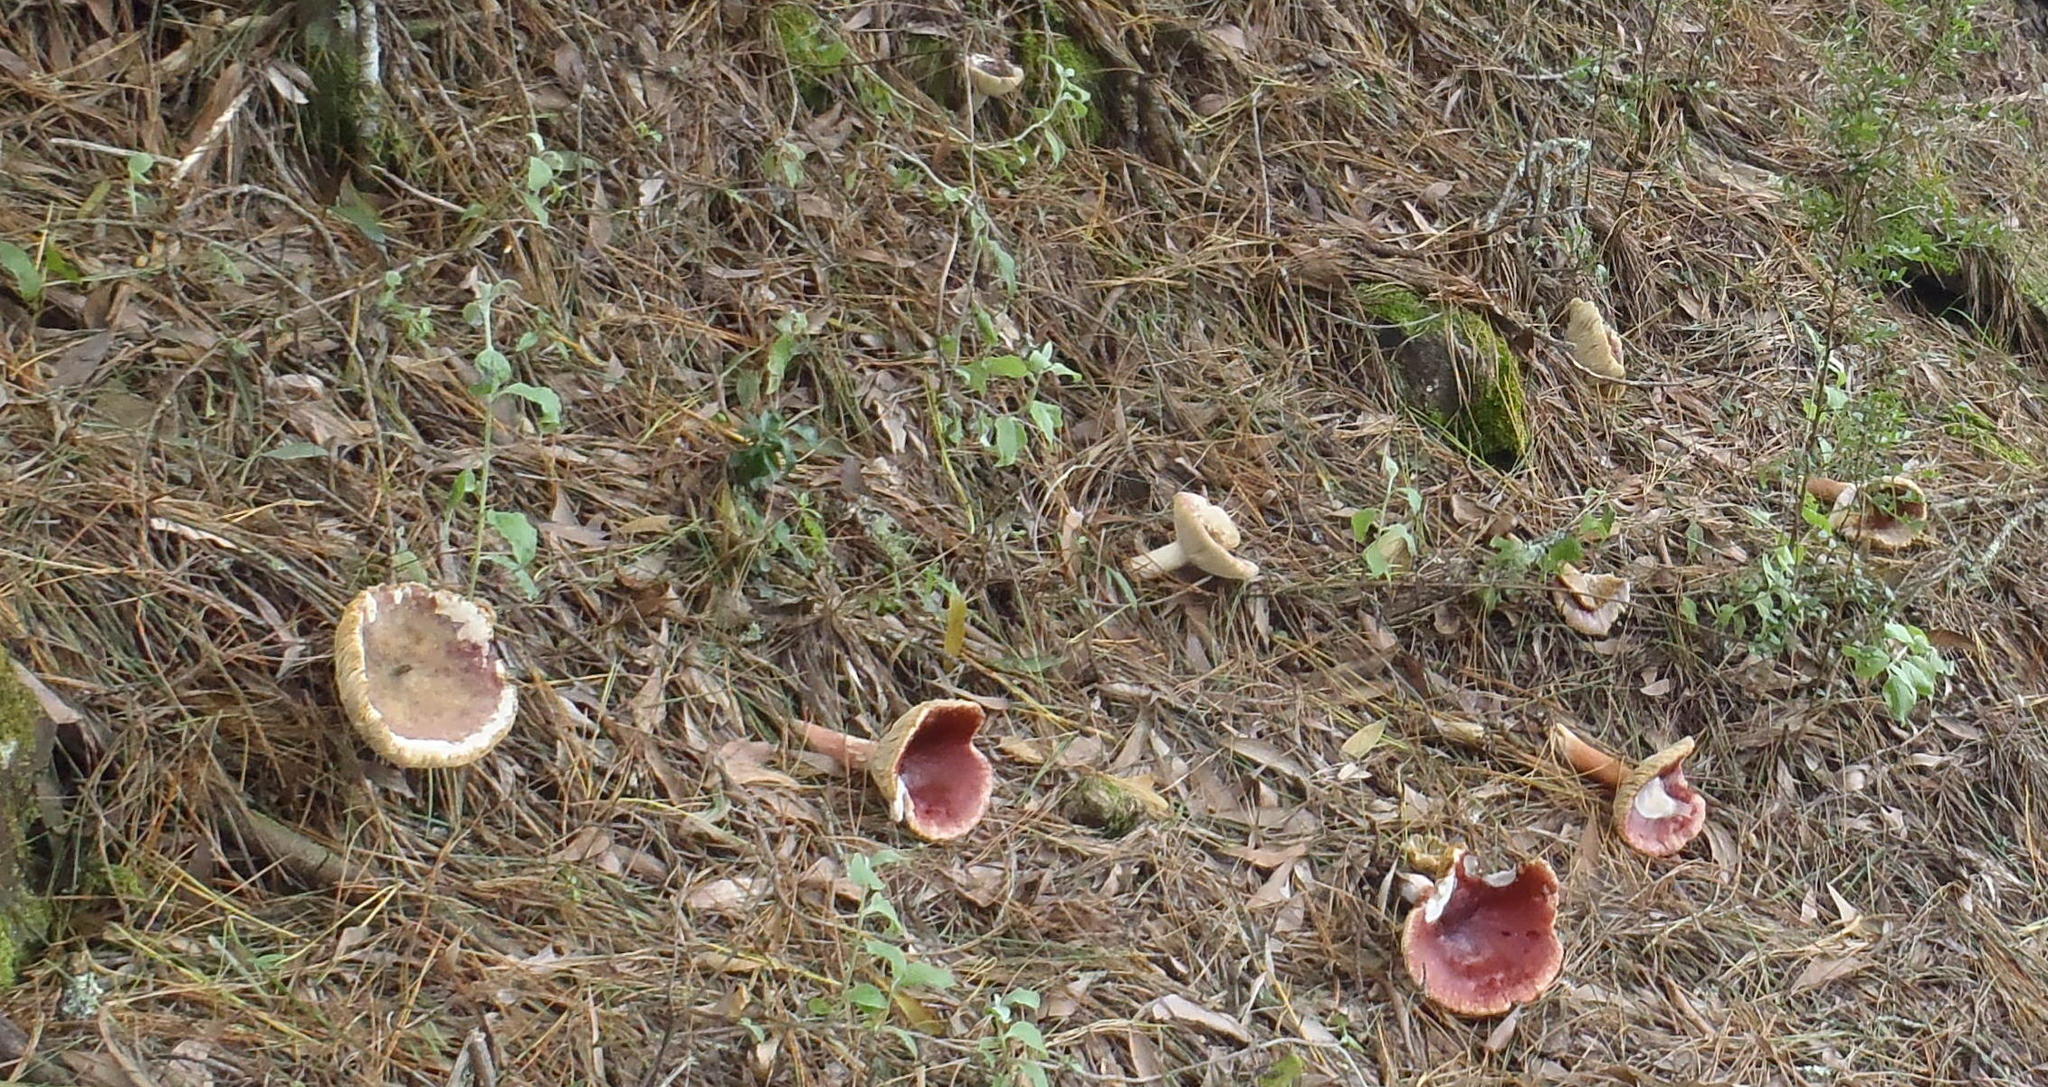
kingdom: Fungi
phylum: Basidiomycota
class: Agaricomycetes
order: Russulales
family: Russulaceae
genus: Russula
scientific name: Russula sardonia
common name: Primrose brittlegill
